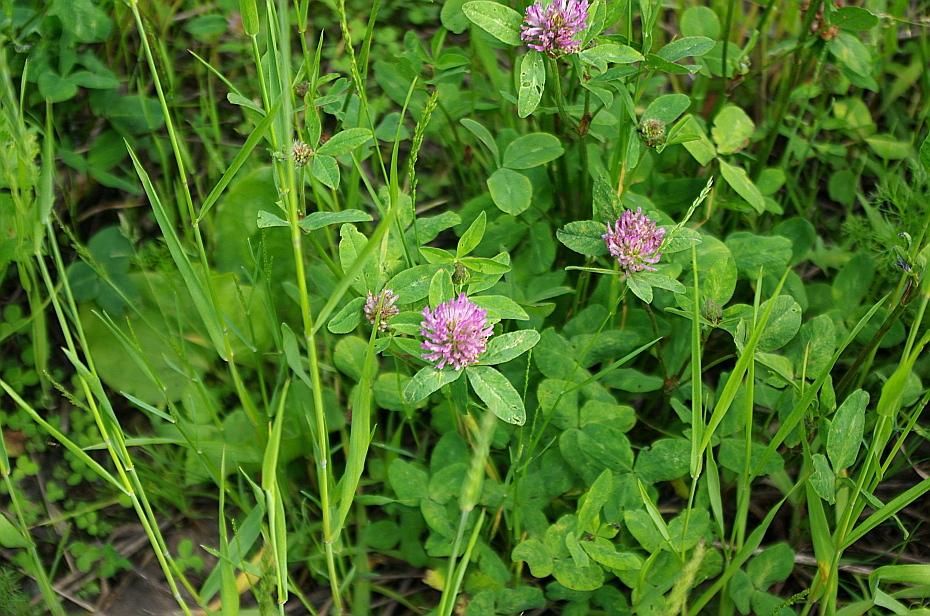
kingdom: Plantae
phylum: Tracheophyta
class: Magnoliopsida
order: Fabales
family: Fabaceae
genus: Trifolium
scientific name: Trifolium pratense
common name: Red clover
